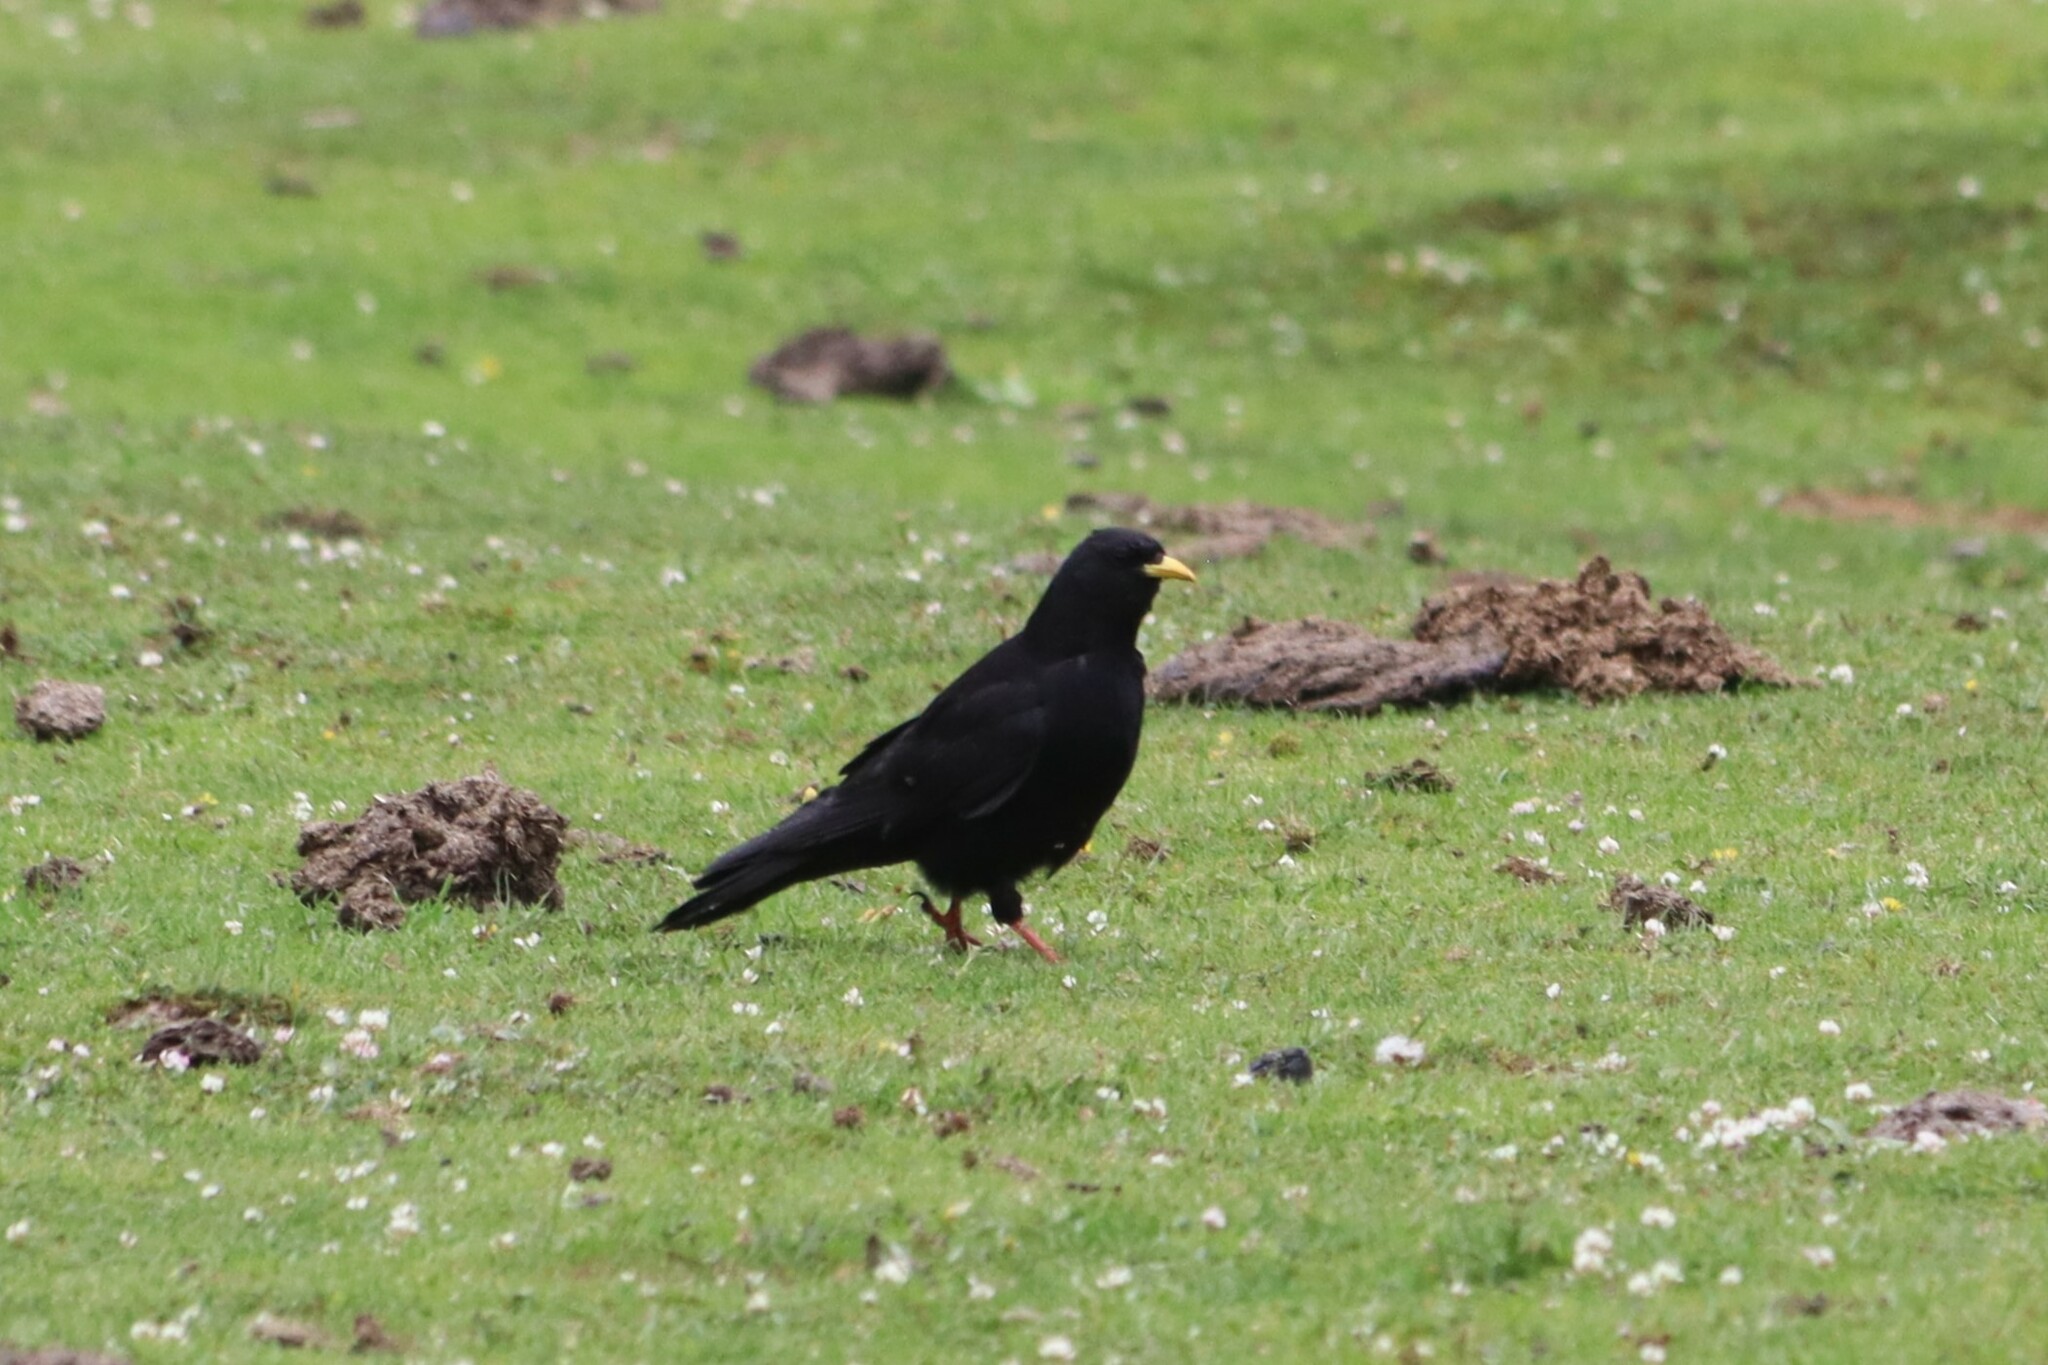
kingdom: Animalia
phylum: Chordata
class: Aves
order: Passeriformes
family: Corvidae
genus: Pyrrhocorax
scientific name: Pyrrhocorax graculus
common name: Alpine chough
